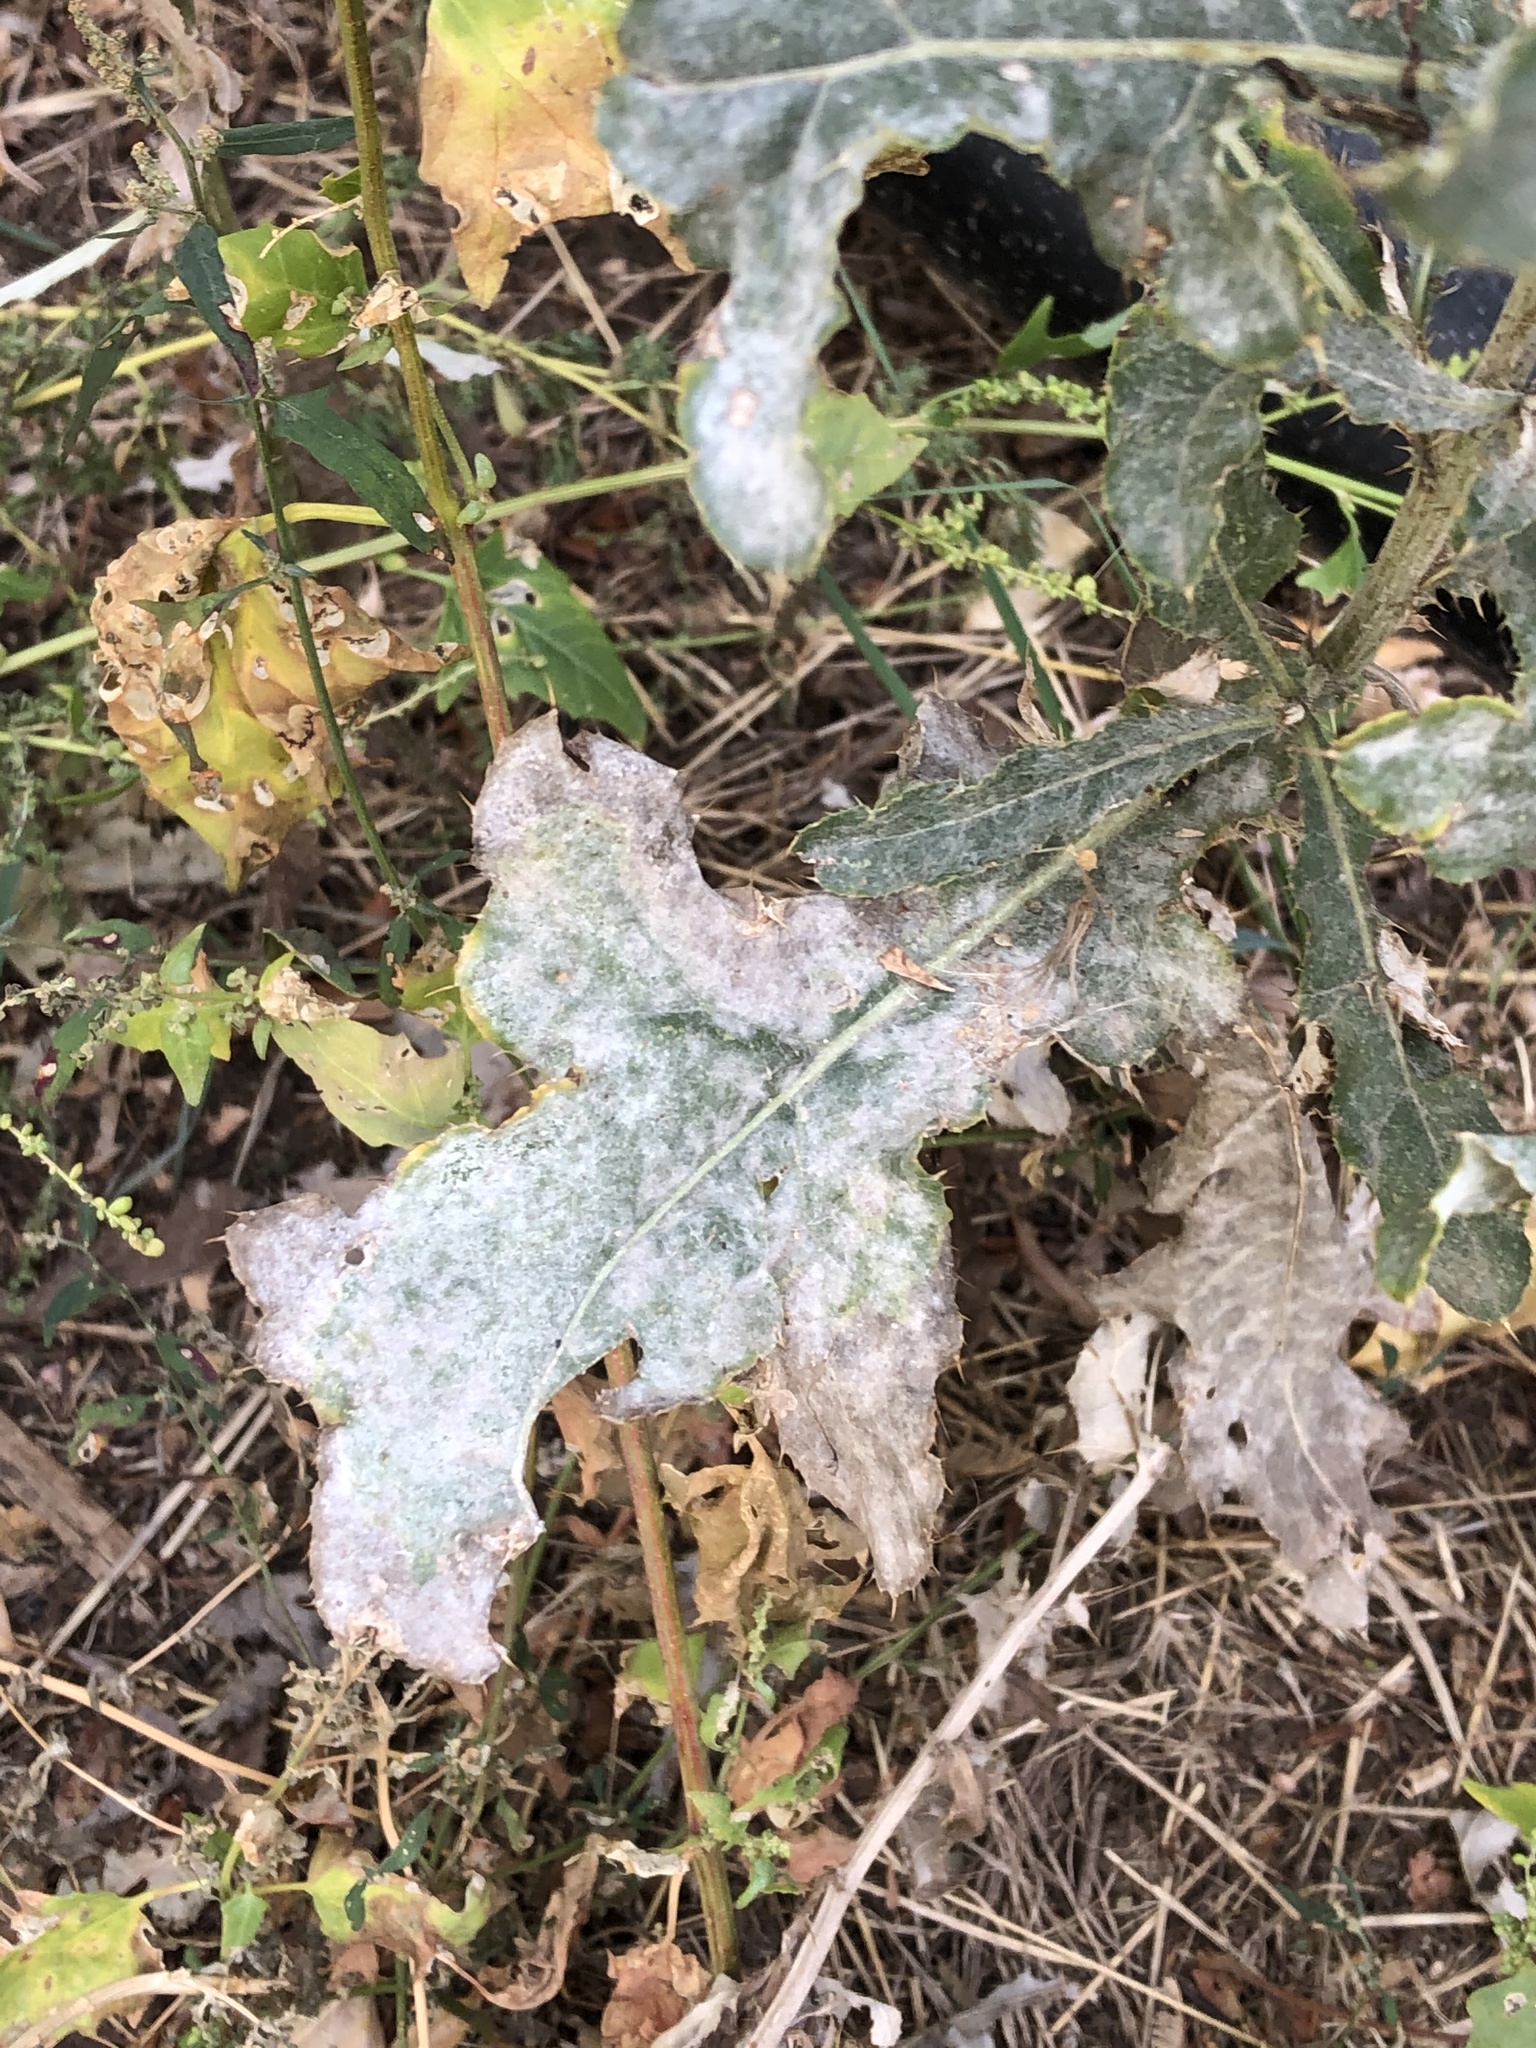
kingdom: Plantae
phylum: Tracheophyta
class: Magnoliopsida
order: Asterales
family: Asteraceae
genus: Cirsium
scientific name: Cirsium arvense
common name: Creeping thistle
